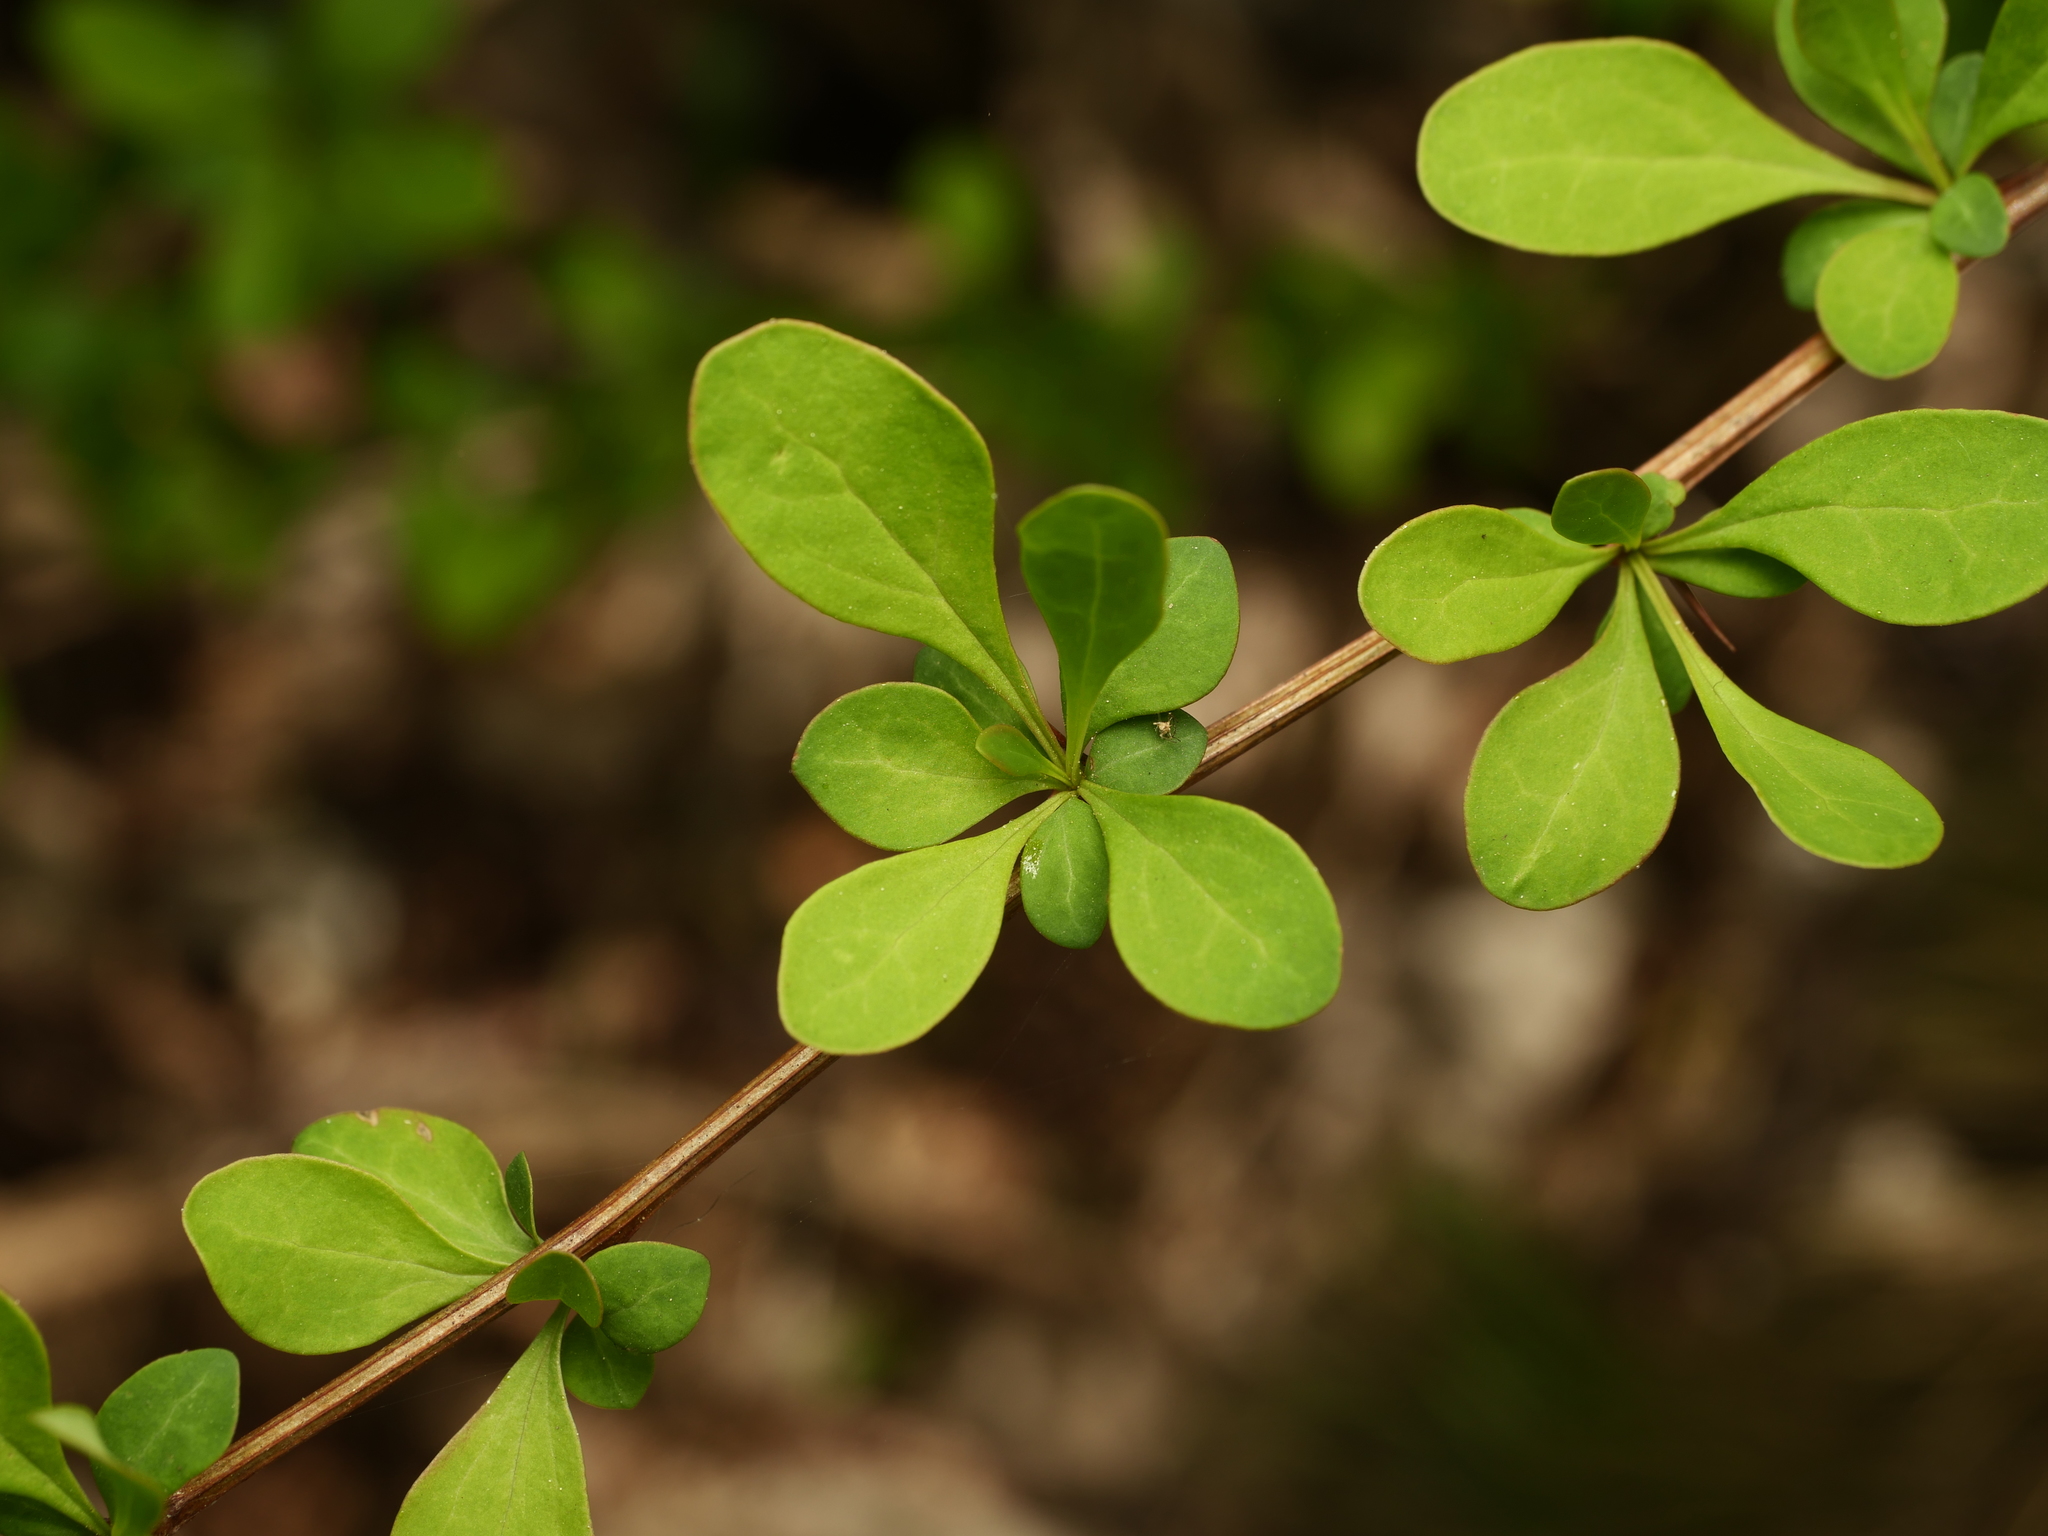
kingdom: Plantae
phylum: Tracheophyta
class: Magnoliopsida
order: Ranunculales
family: Berberidaceae
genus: Berberis
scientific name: Berberis thunbergii
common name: Japanese barberry
